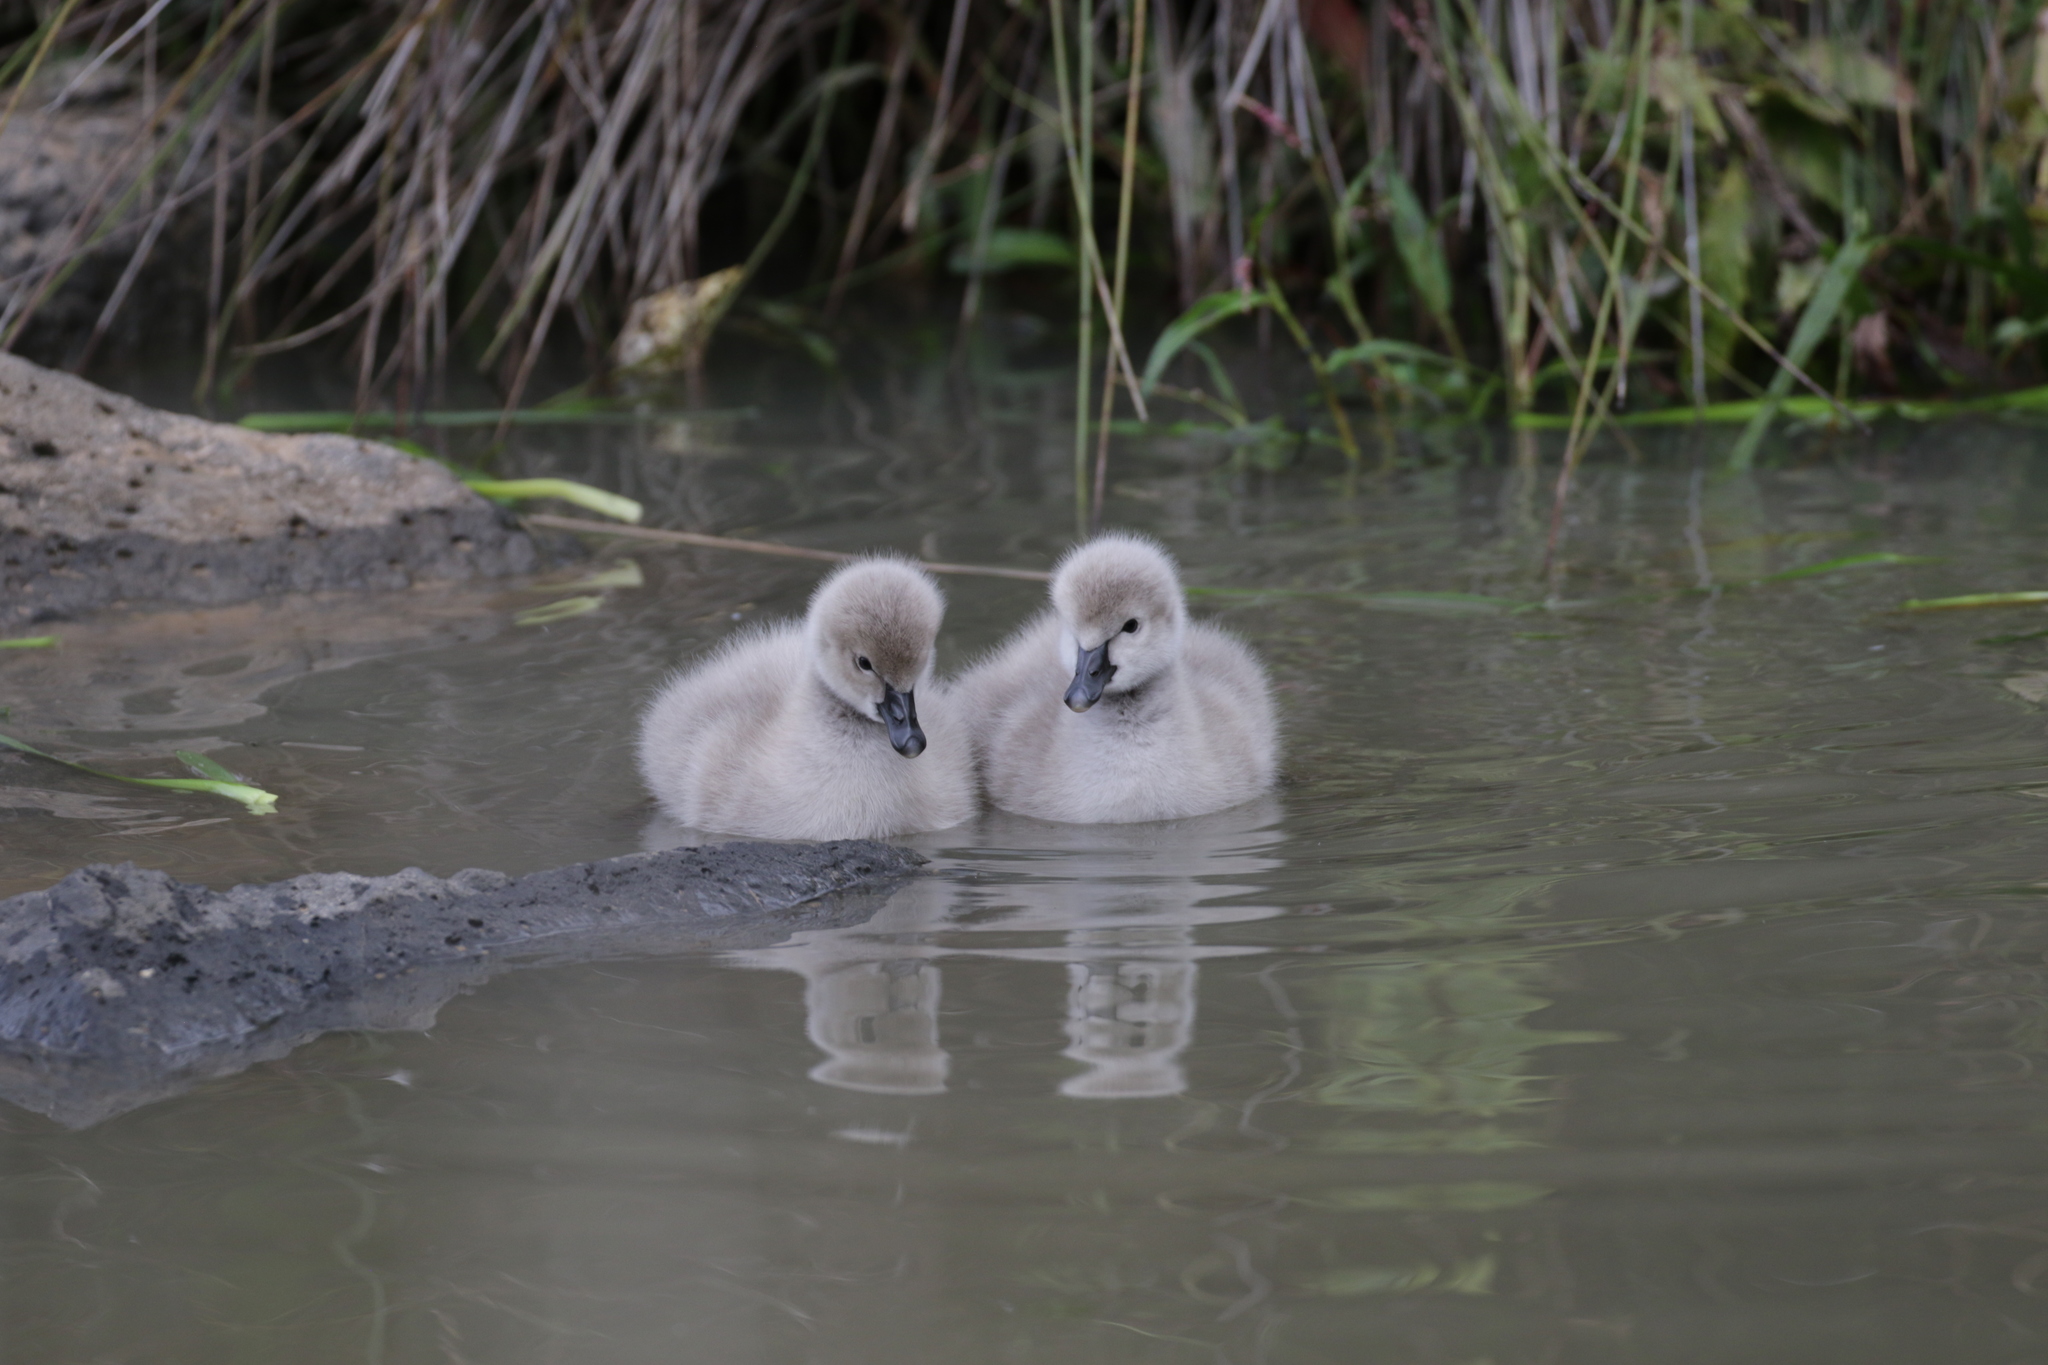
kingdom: Animalia
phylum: Chordata
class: Aves
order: Anseriformes
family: Anatidae
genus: Cygnus
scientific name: Cygnus atratus
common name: Black swan
